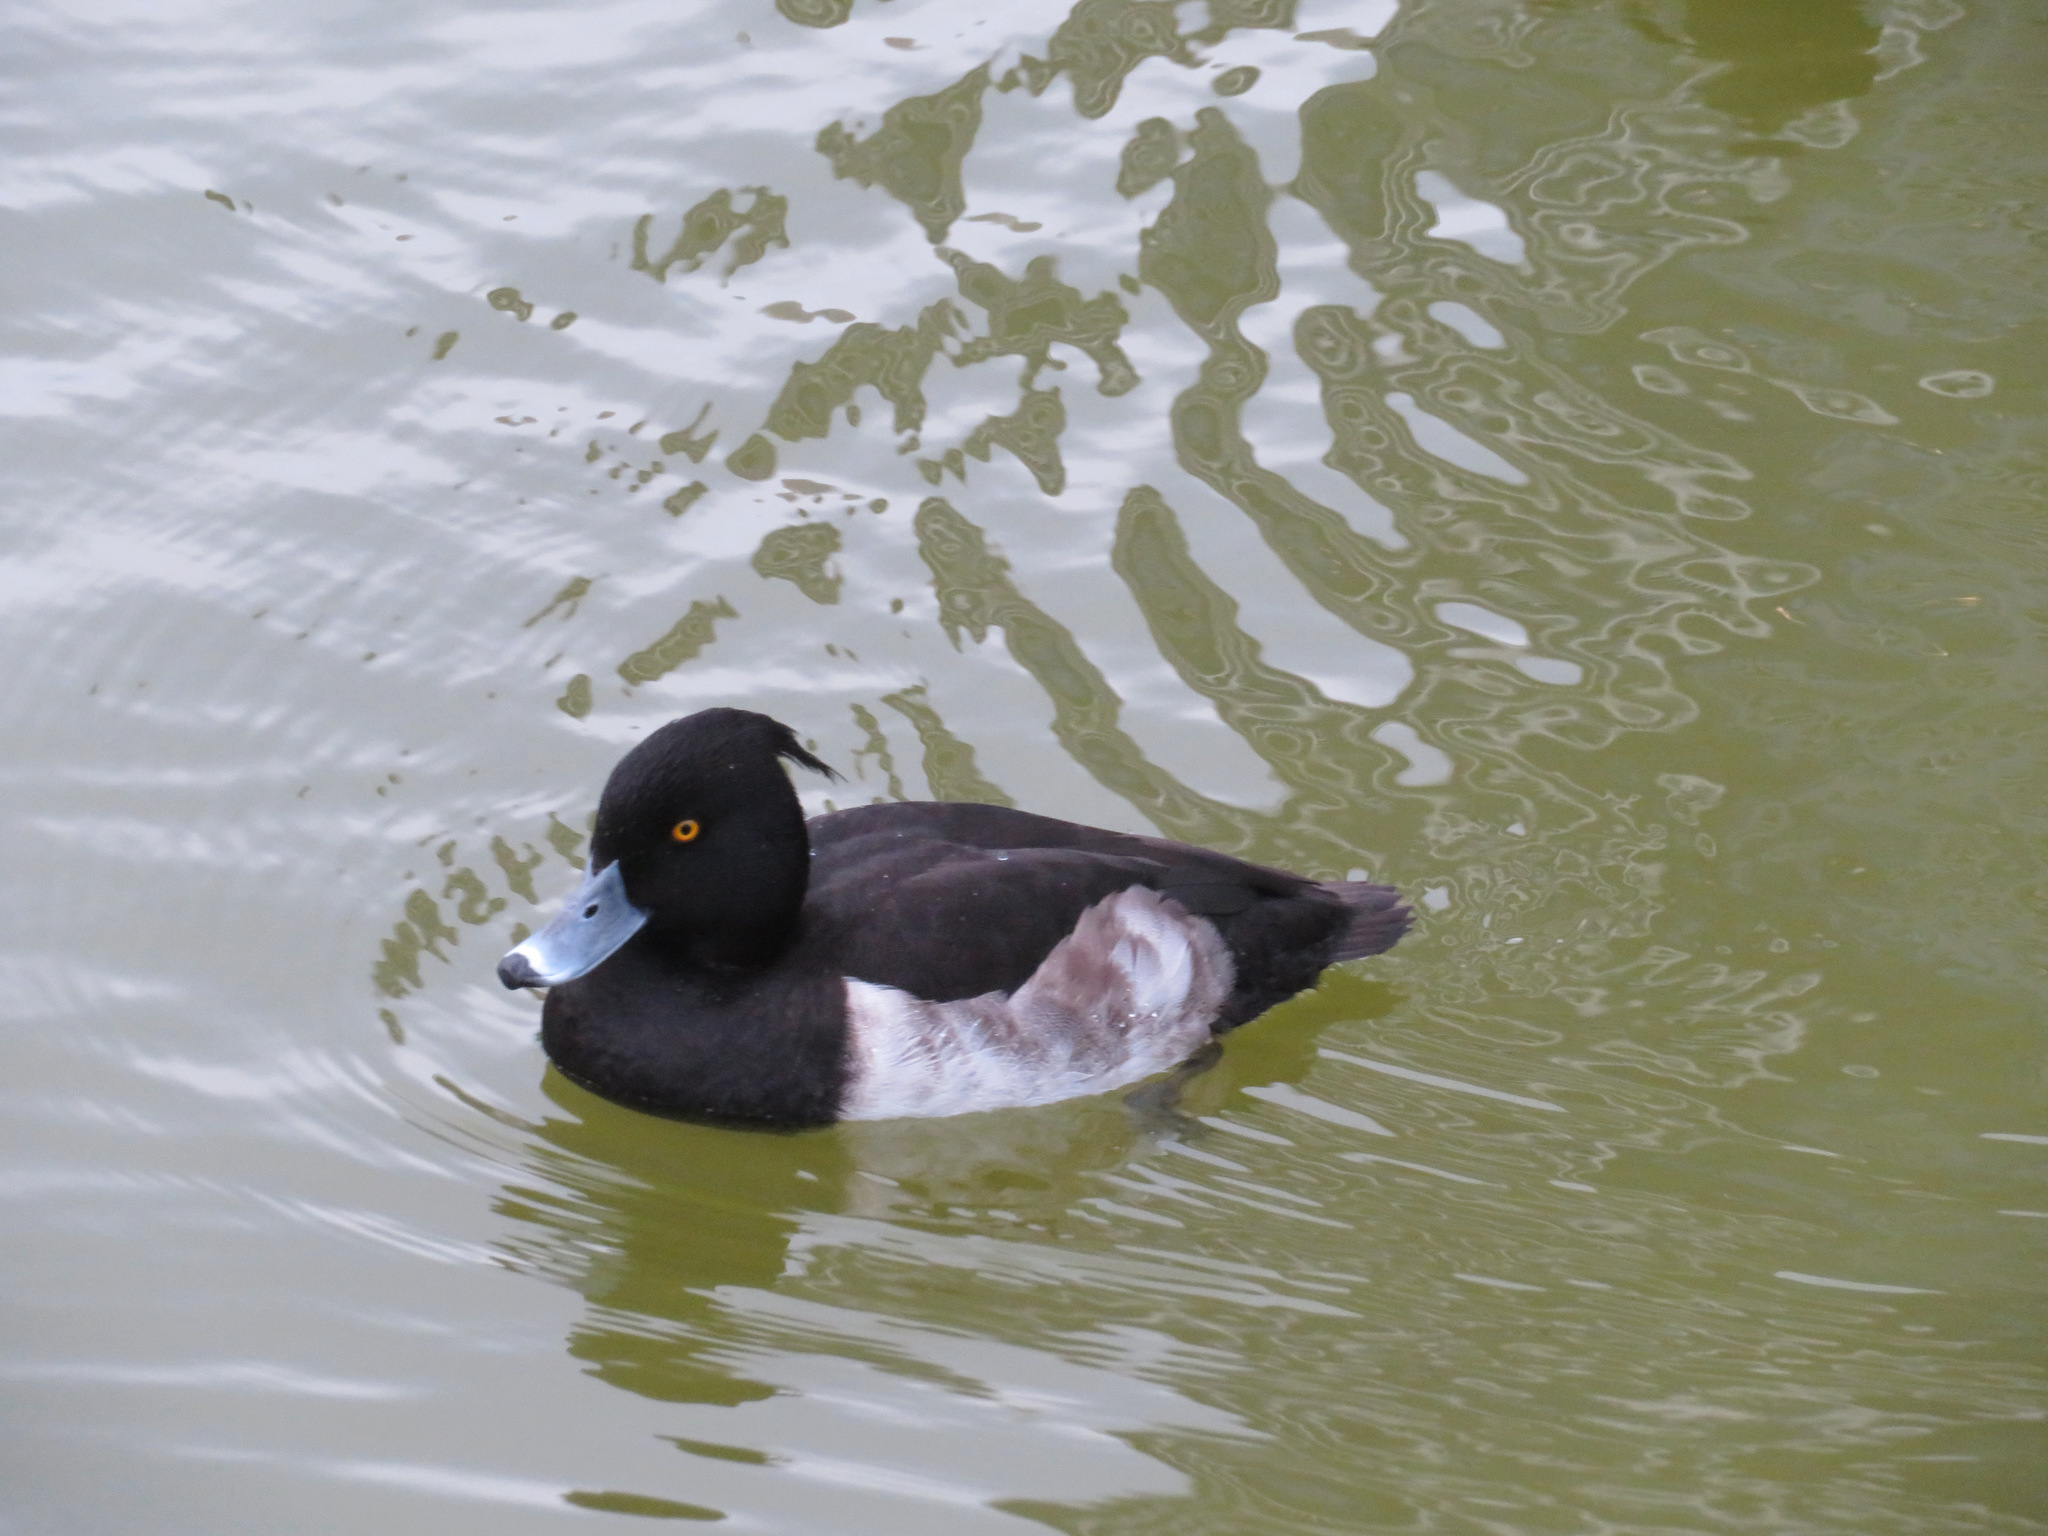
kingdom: Animalia
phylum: Chordata
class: Aves
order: Anseriformes
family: Anatidae
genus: Aythya
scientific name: Aythya fuligula
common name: Tufted duck
